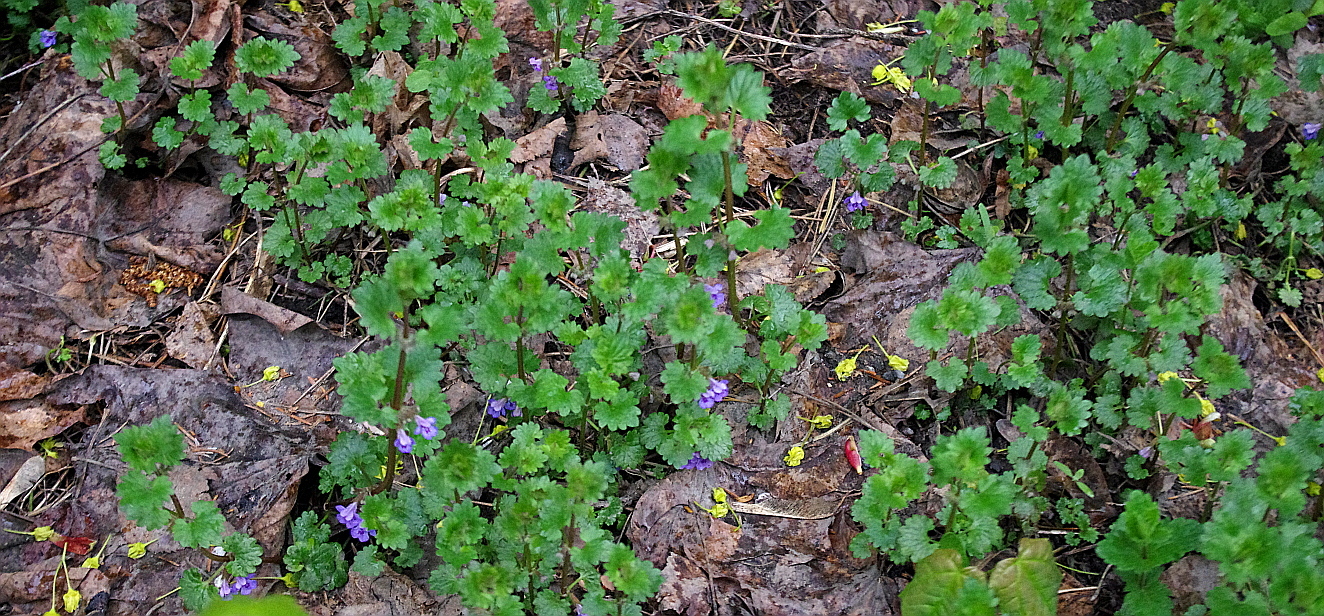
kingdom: Plantae
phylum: Tracheophyta
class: Magnoliopsida
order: Lamiales
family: Lamiaceae
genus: Glechoma
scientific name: Glechoma hederacea
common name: Ground ivy
